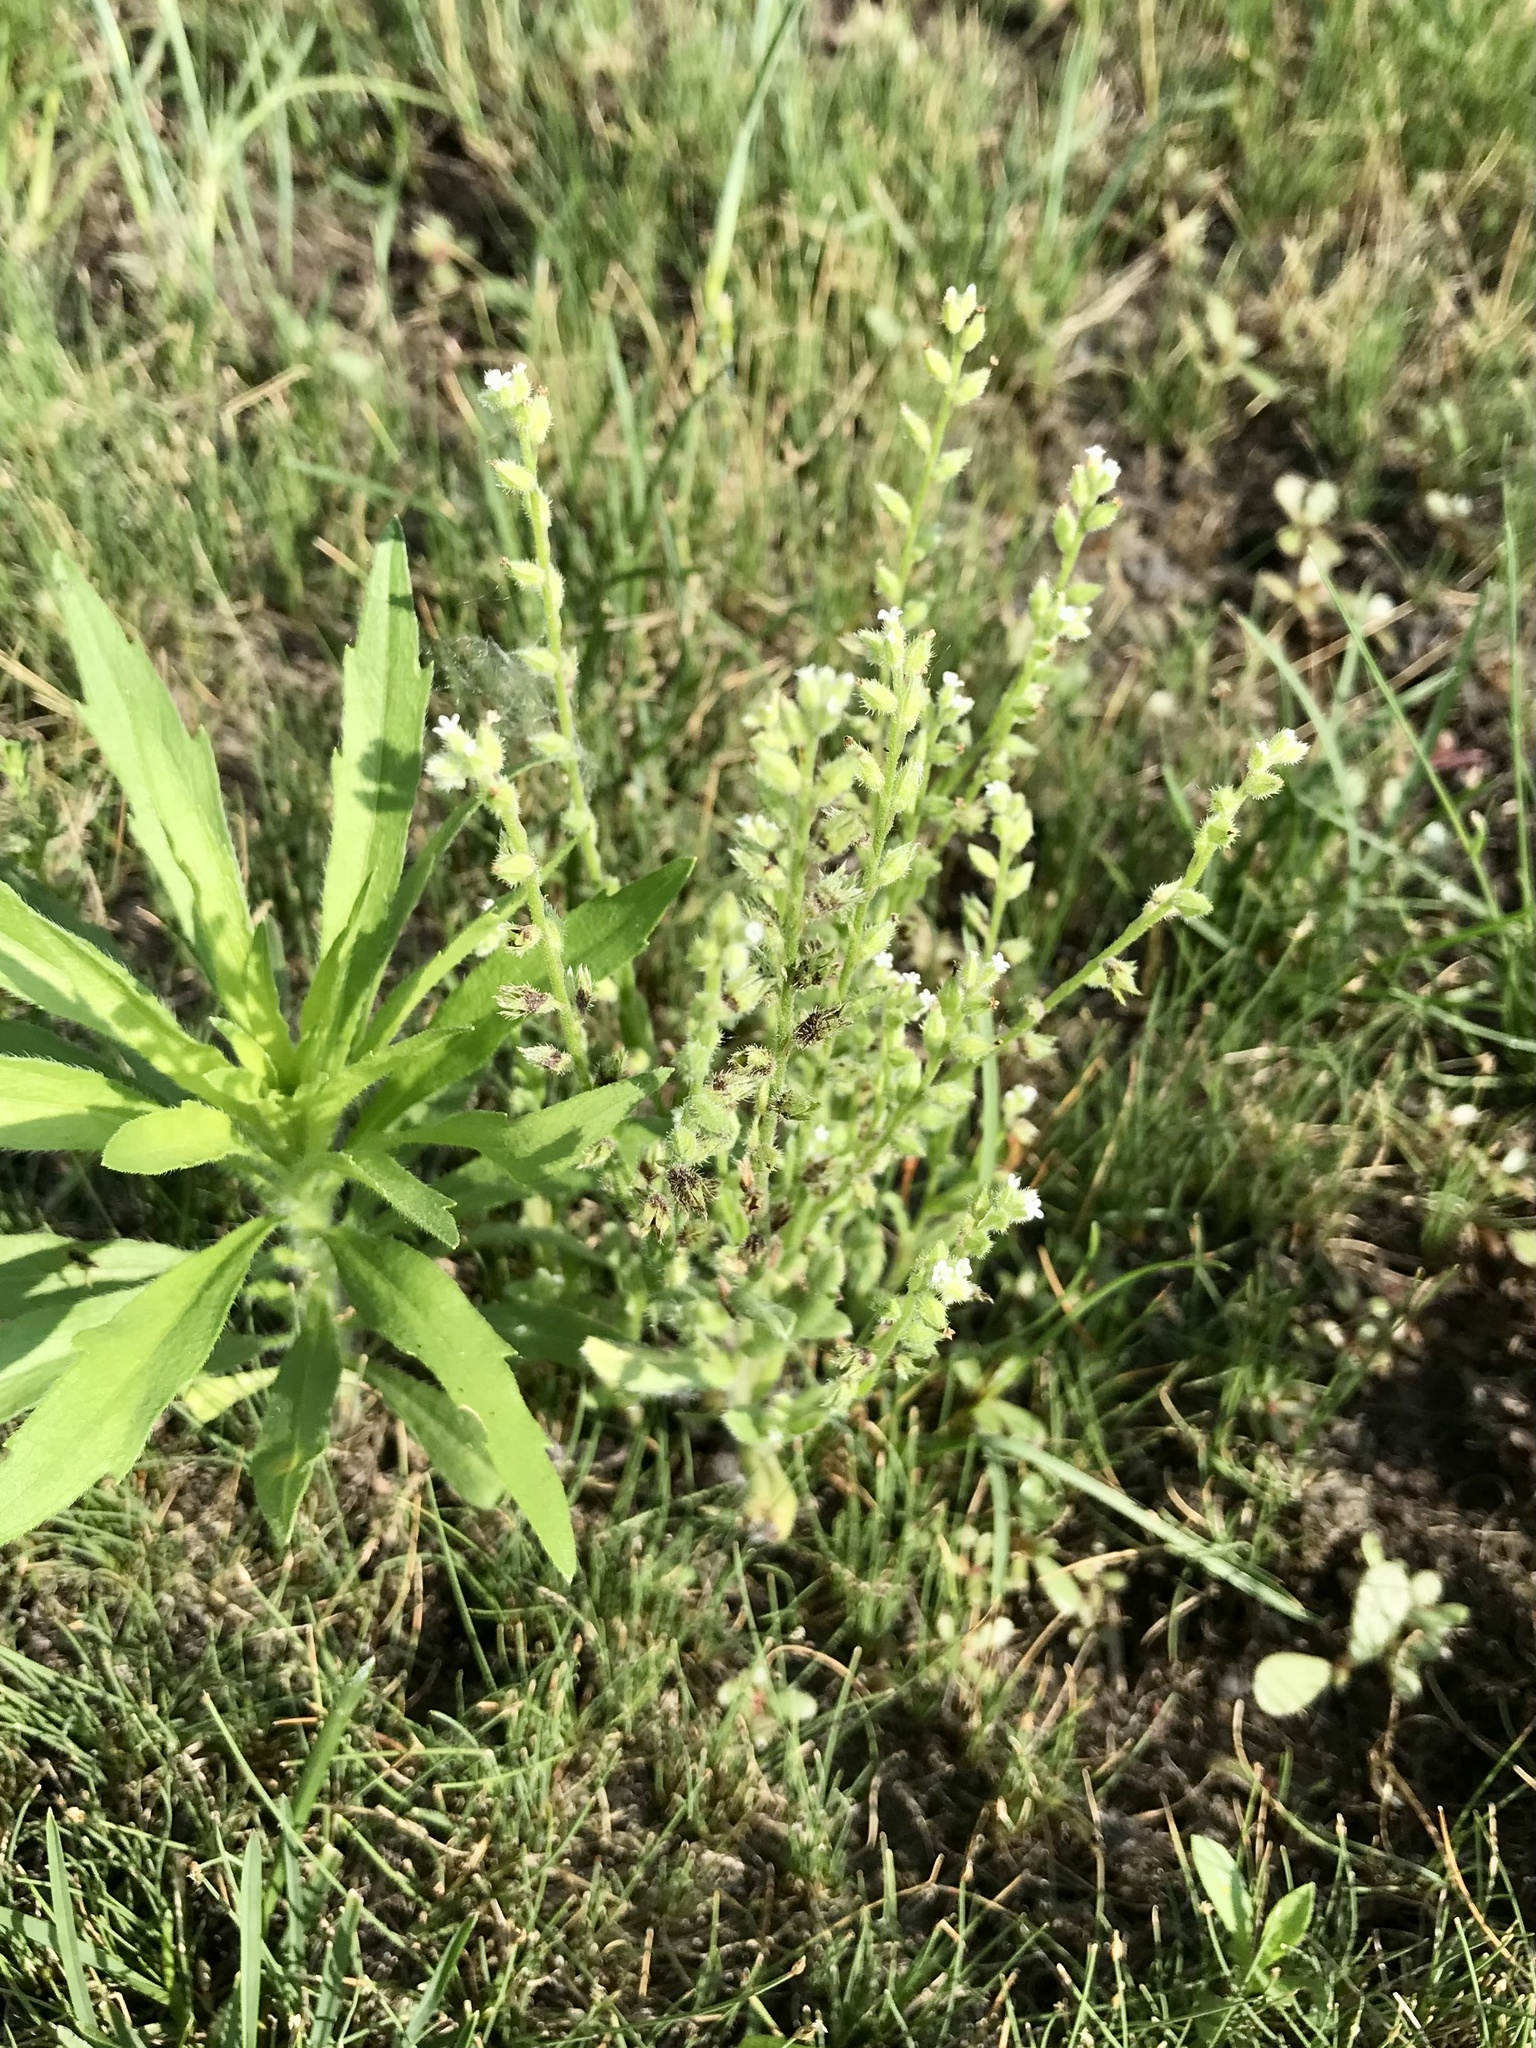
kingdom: Plantae
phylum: Tracheophyta
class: Magnoliopsida
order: Boraginales
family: Boraginaceae
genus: Myosotis
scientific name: Myosotis verna
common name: Early forget-me-not
